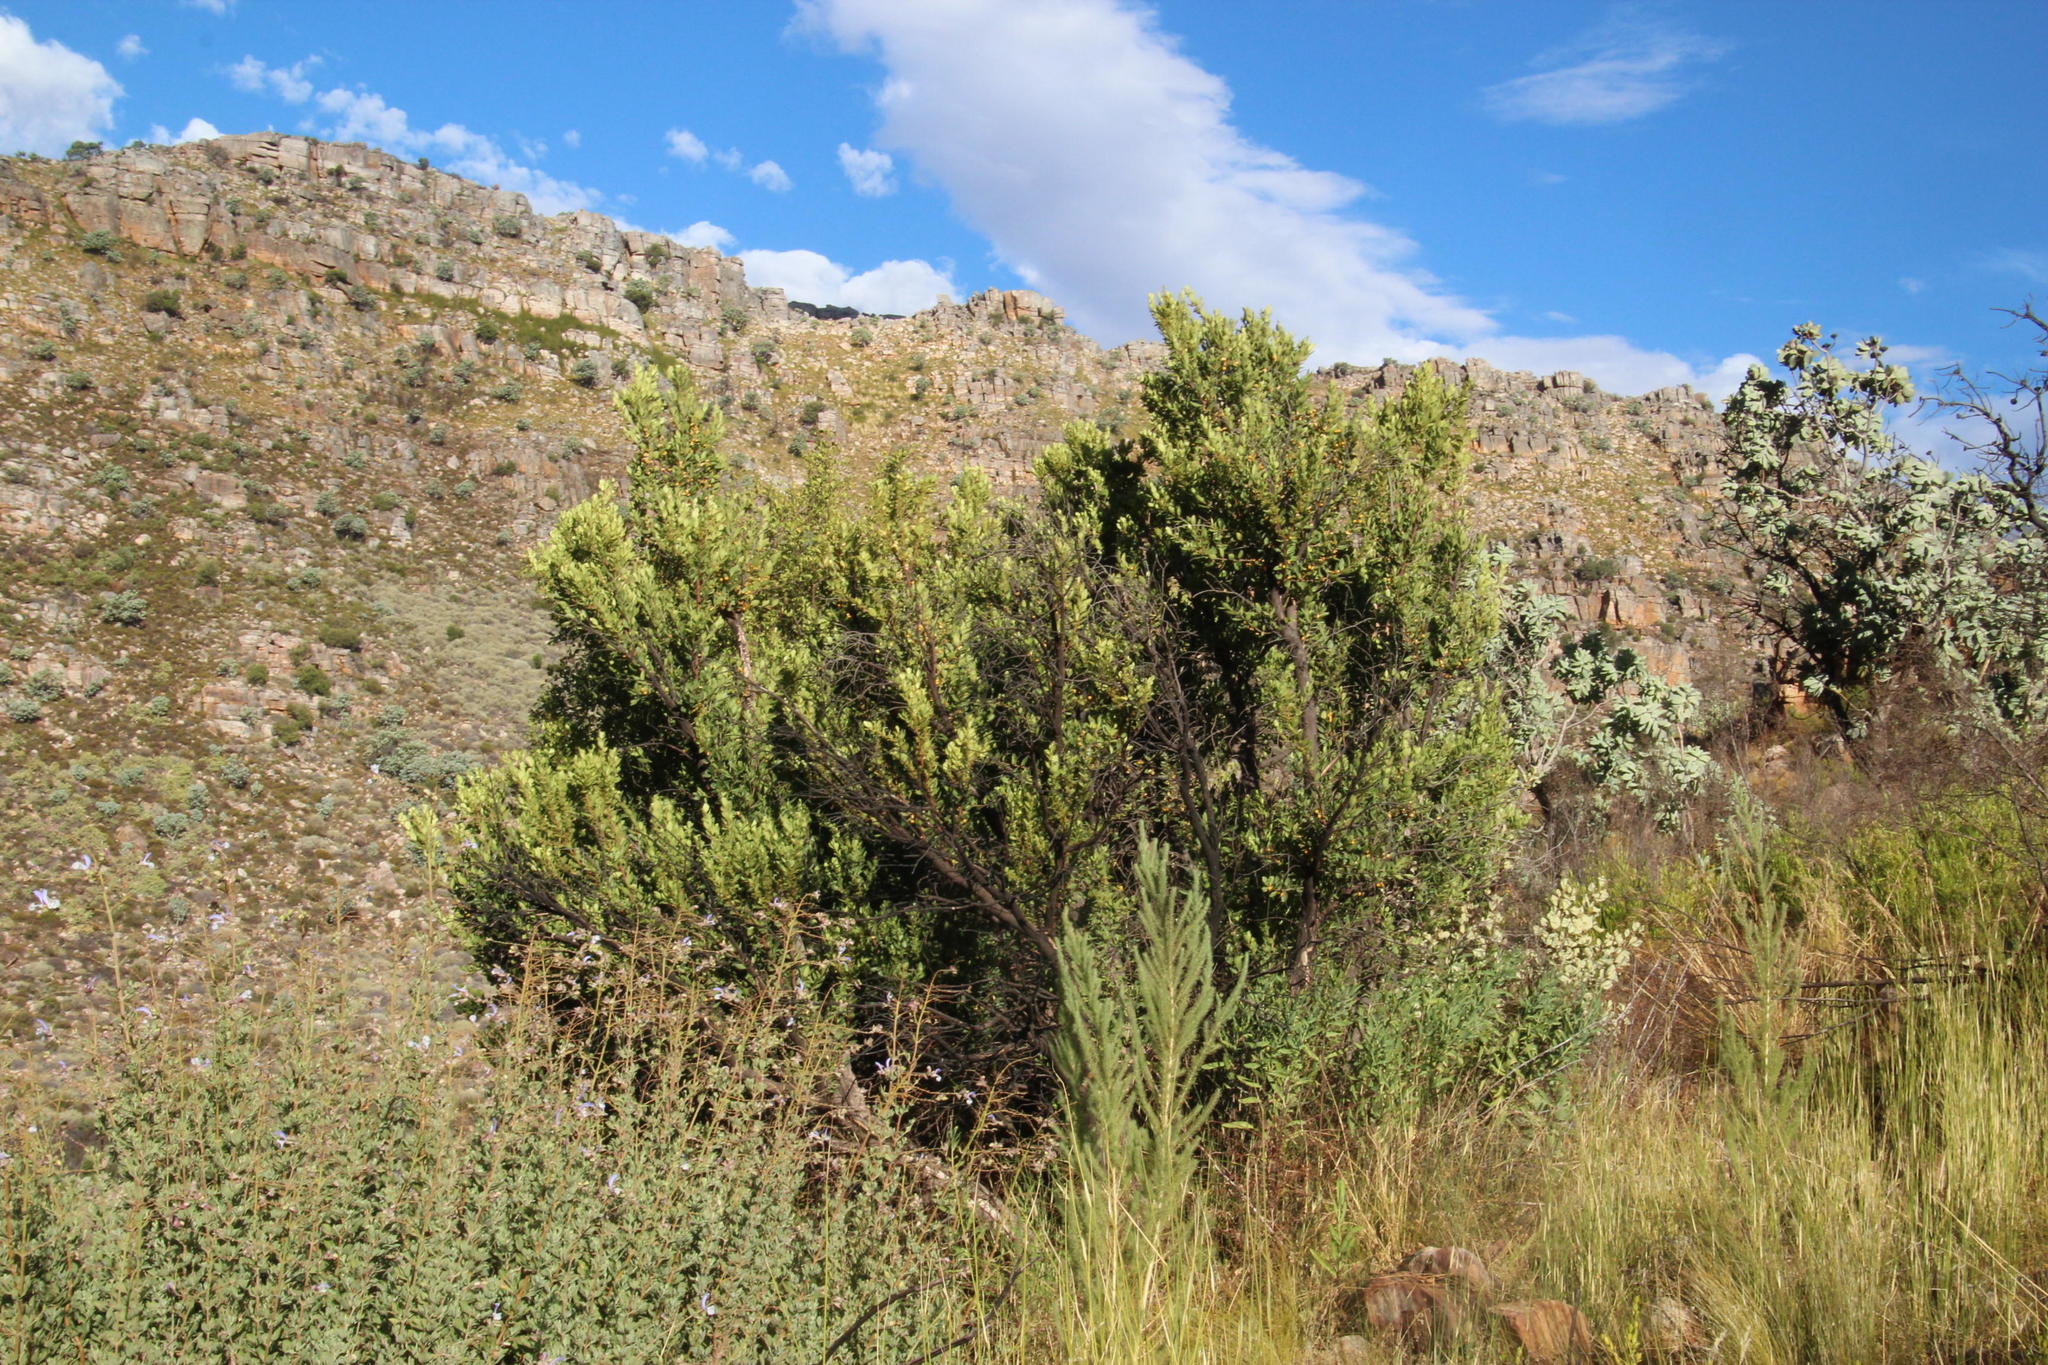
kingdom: Plantae
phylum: Tracheophyta
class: Magnoliopsida
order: Celastrales
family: Celastraceae
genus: Gymnosporia
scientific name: Gymnosporia laurina
